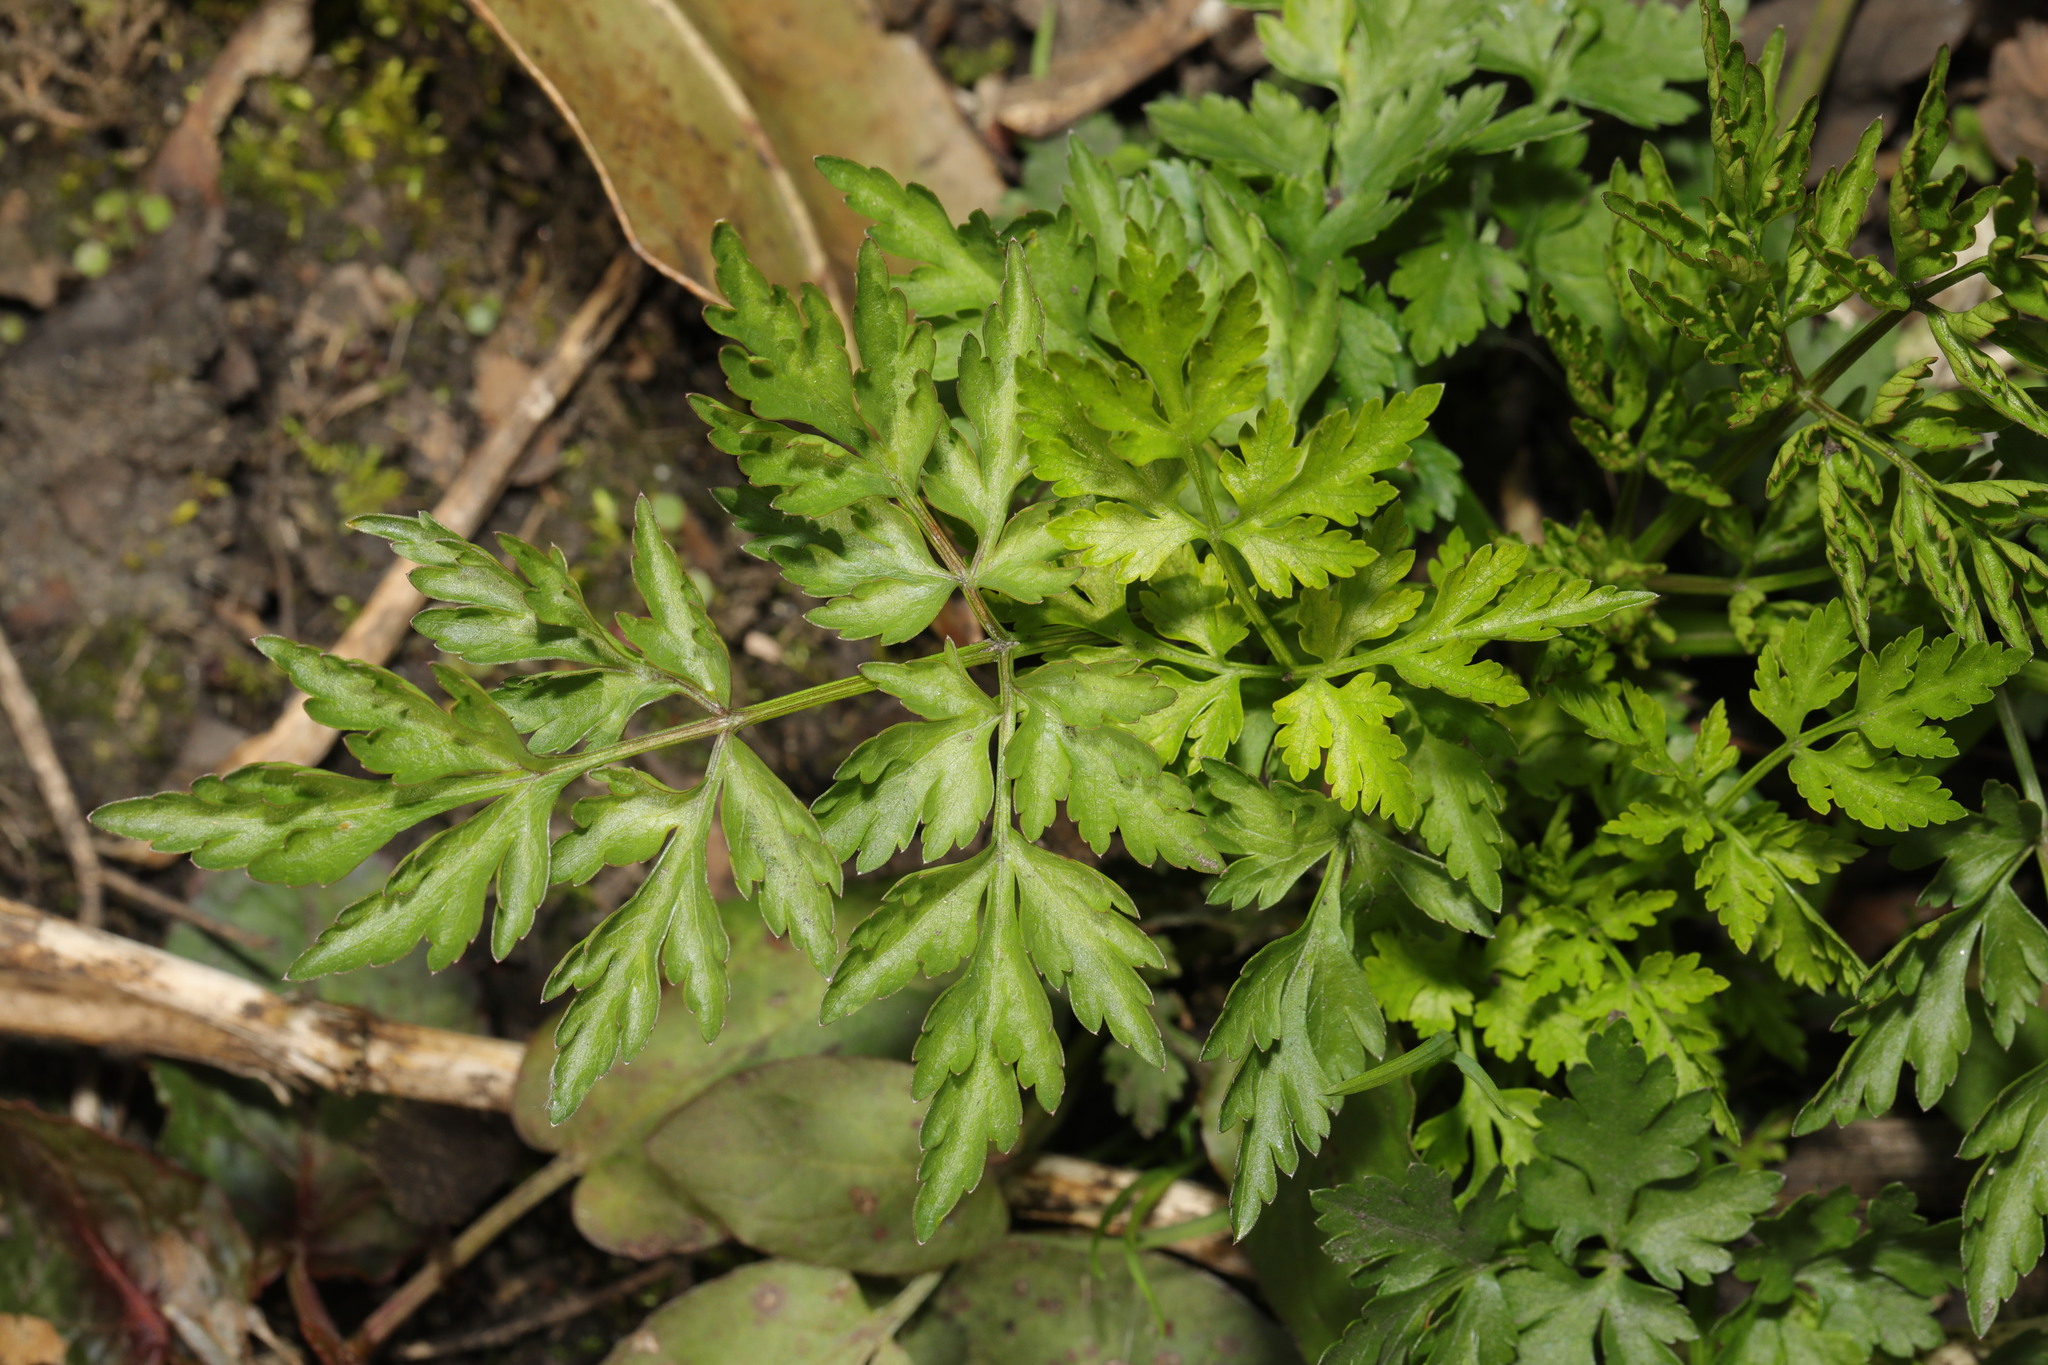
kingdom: Plantae
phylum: Tracheophyta
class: Magnoliopsida
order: Apiales
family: Apiaceae
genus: Anthriscus
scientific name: Anthriscus sylvestris
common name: Cow parsley
